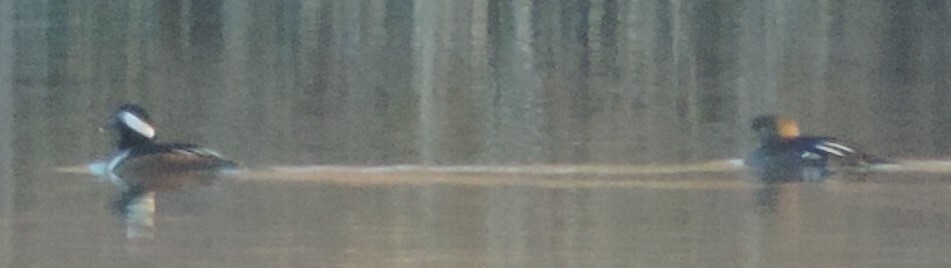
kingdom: Animalia
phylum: Chordata
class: Aves
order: Anseriformes
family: Anatidae
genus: Lophodytes
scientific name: Lophodytes cucullatus
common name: Hooded merganser
